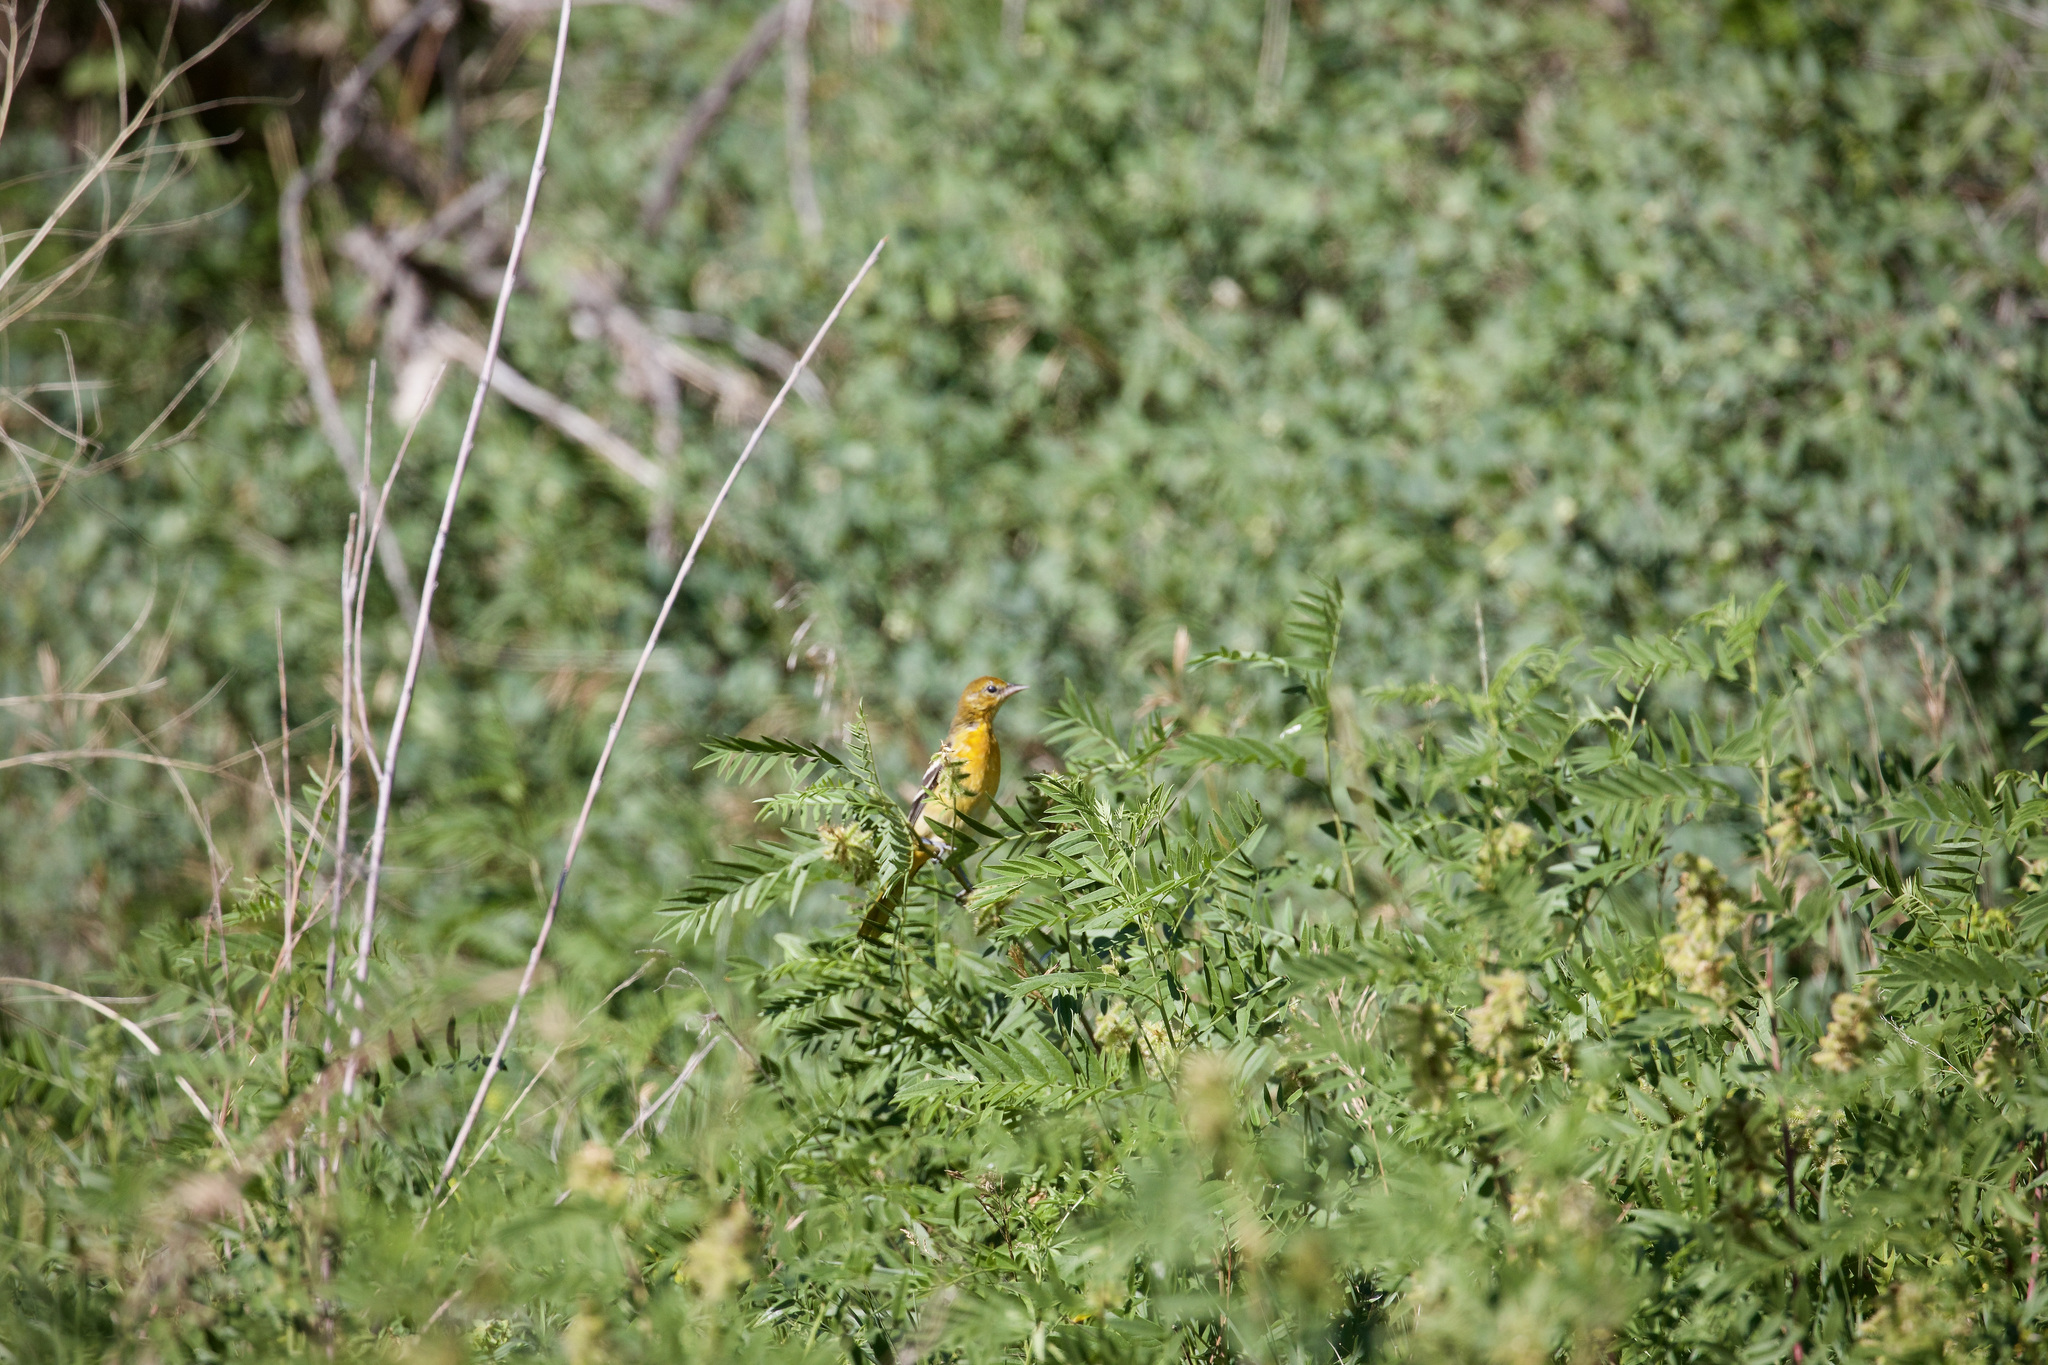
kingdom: Animalia
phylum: Chordata
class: Aves
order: Passeriformes
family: Icteridae
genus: Icterus
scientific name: Icterus galbula
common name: Baltimore oriole
